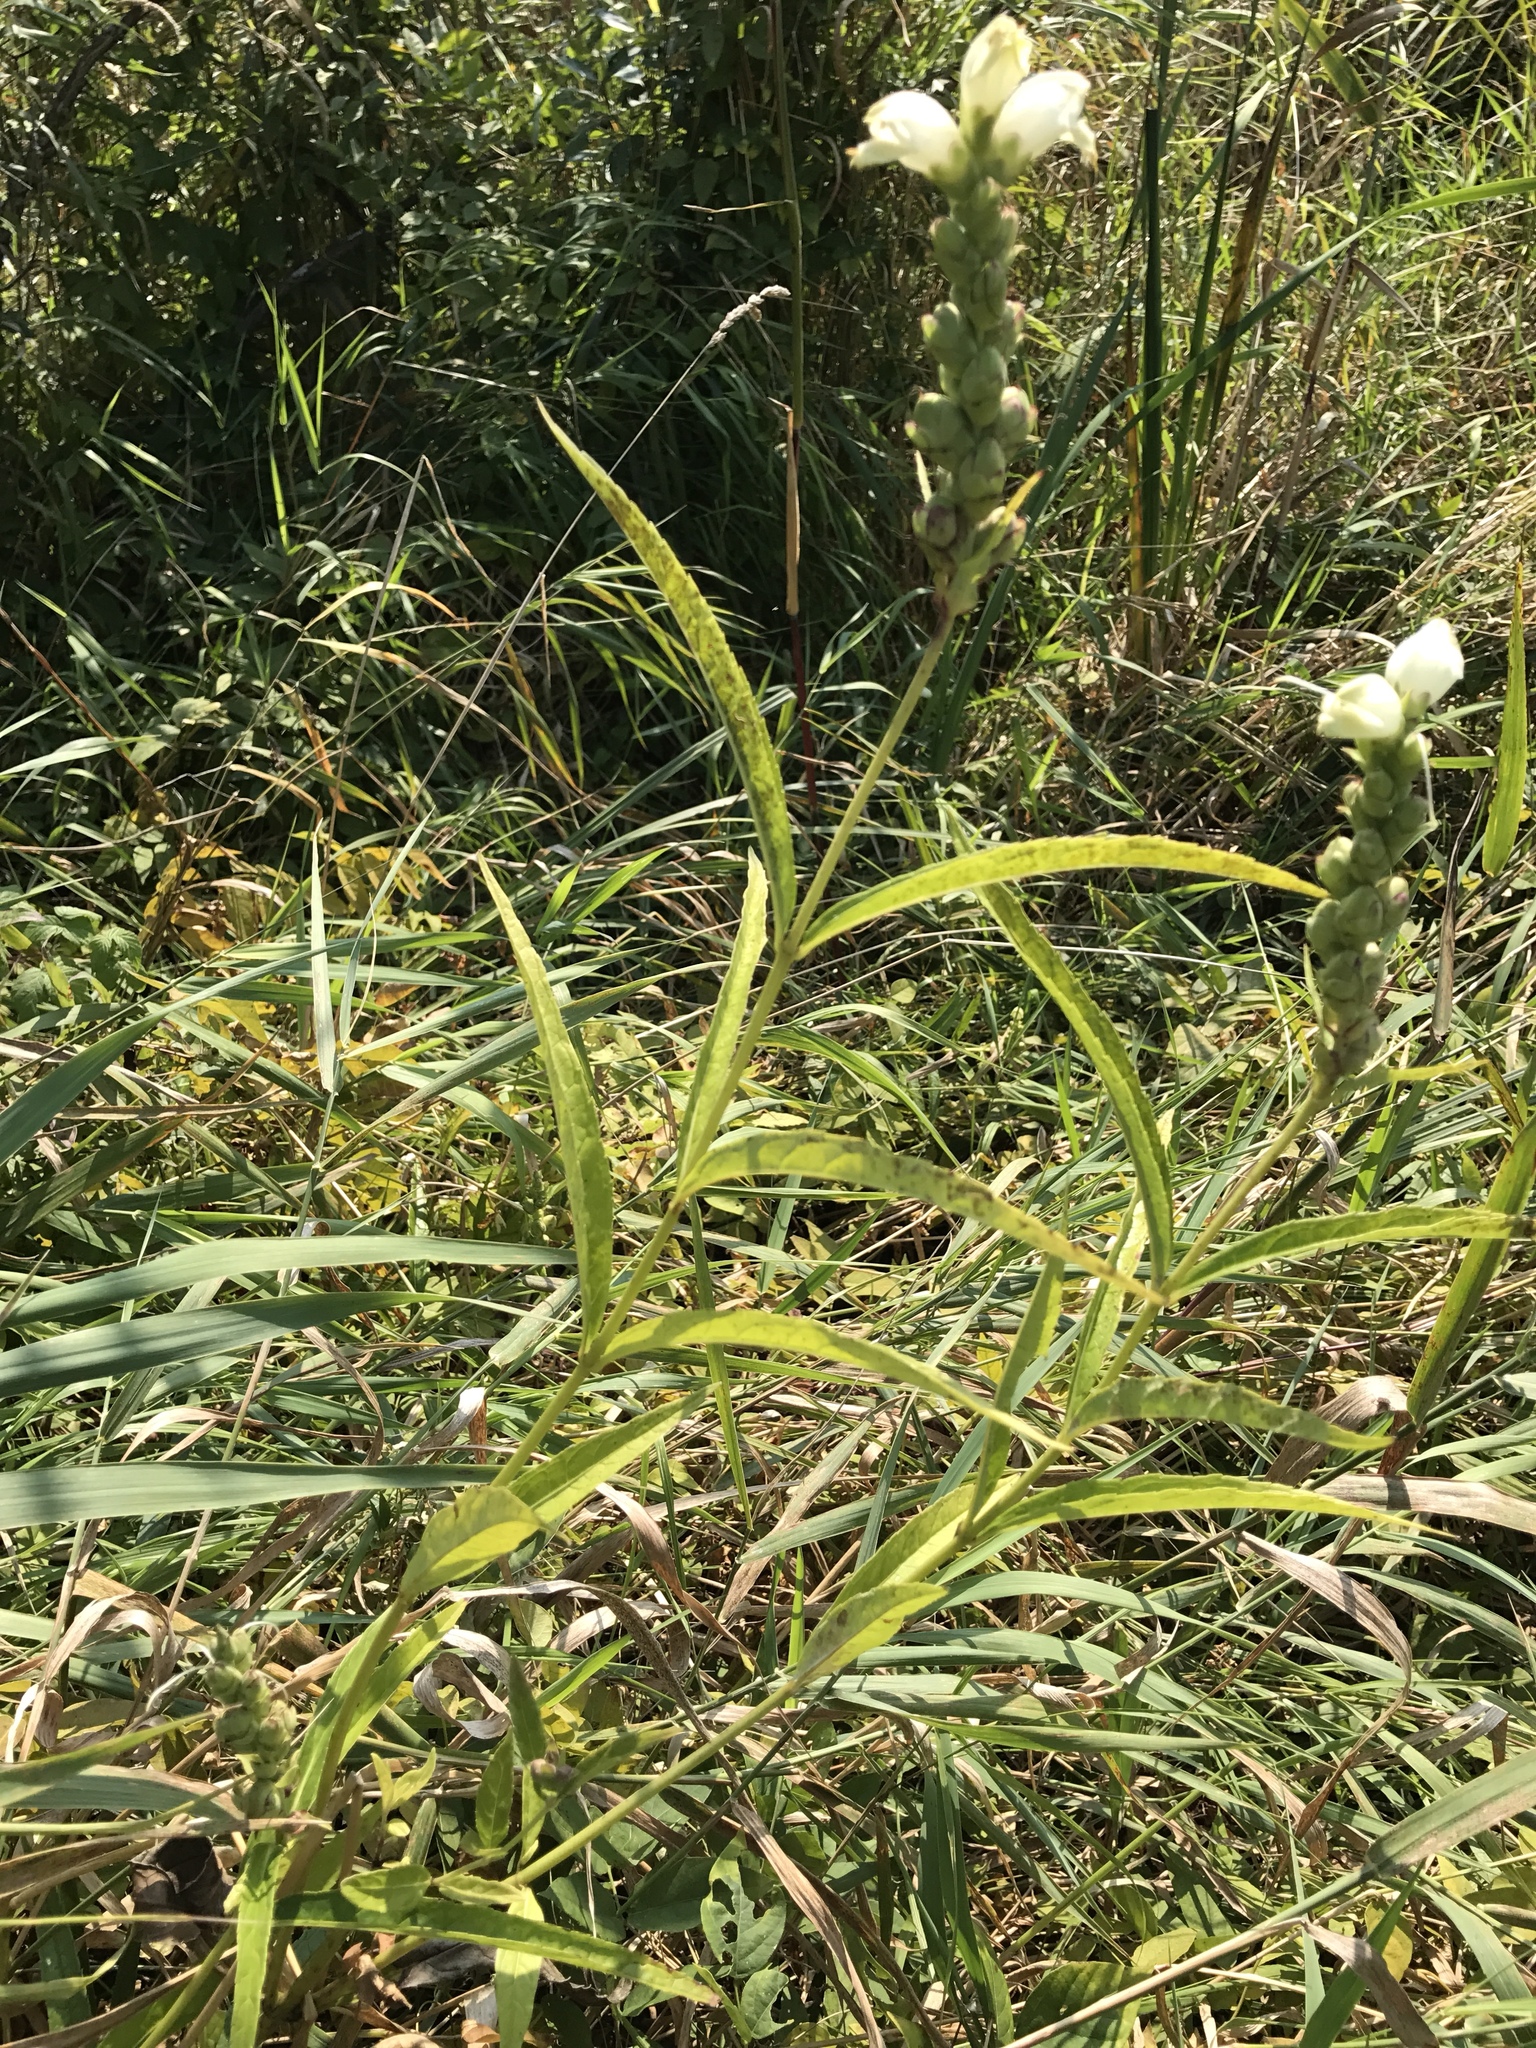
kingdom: Plantae
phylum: Tracheophyta
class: Magnoliopsida
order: Lamiales
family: Plantaginaceae
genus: Chelone
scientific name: Chelone glabra
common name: Snakehead
